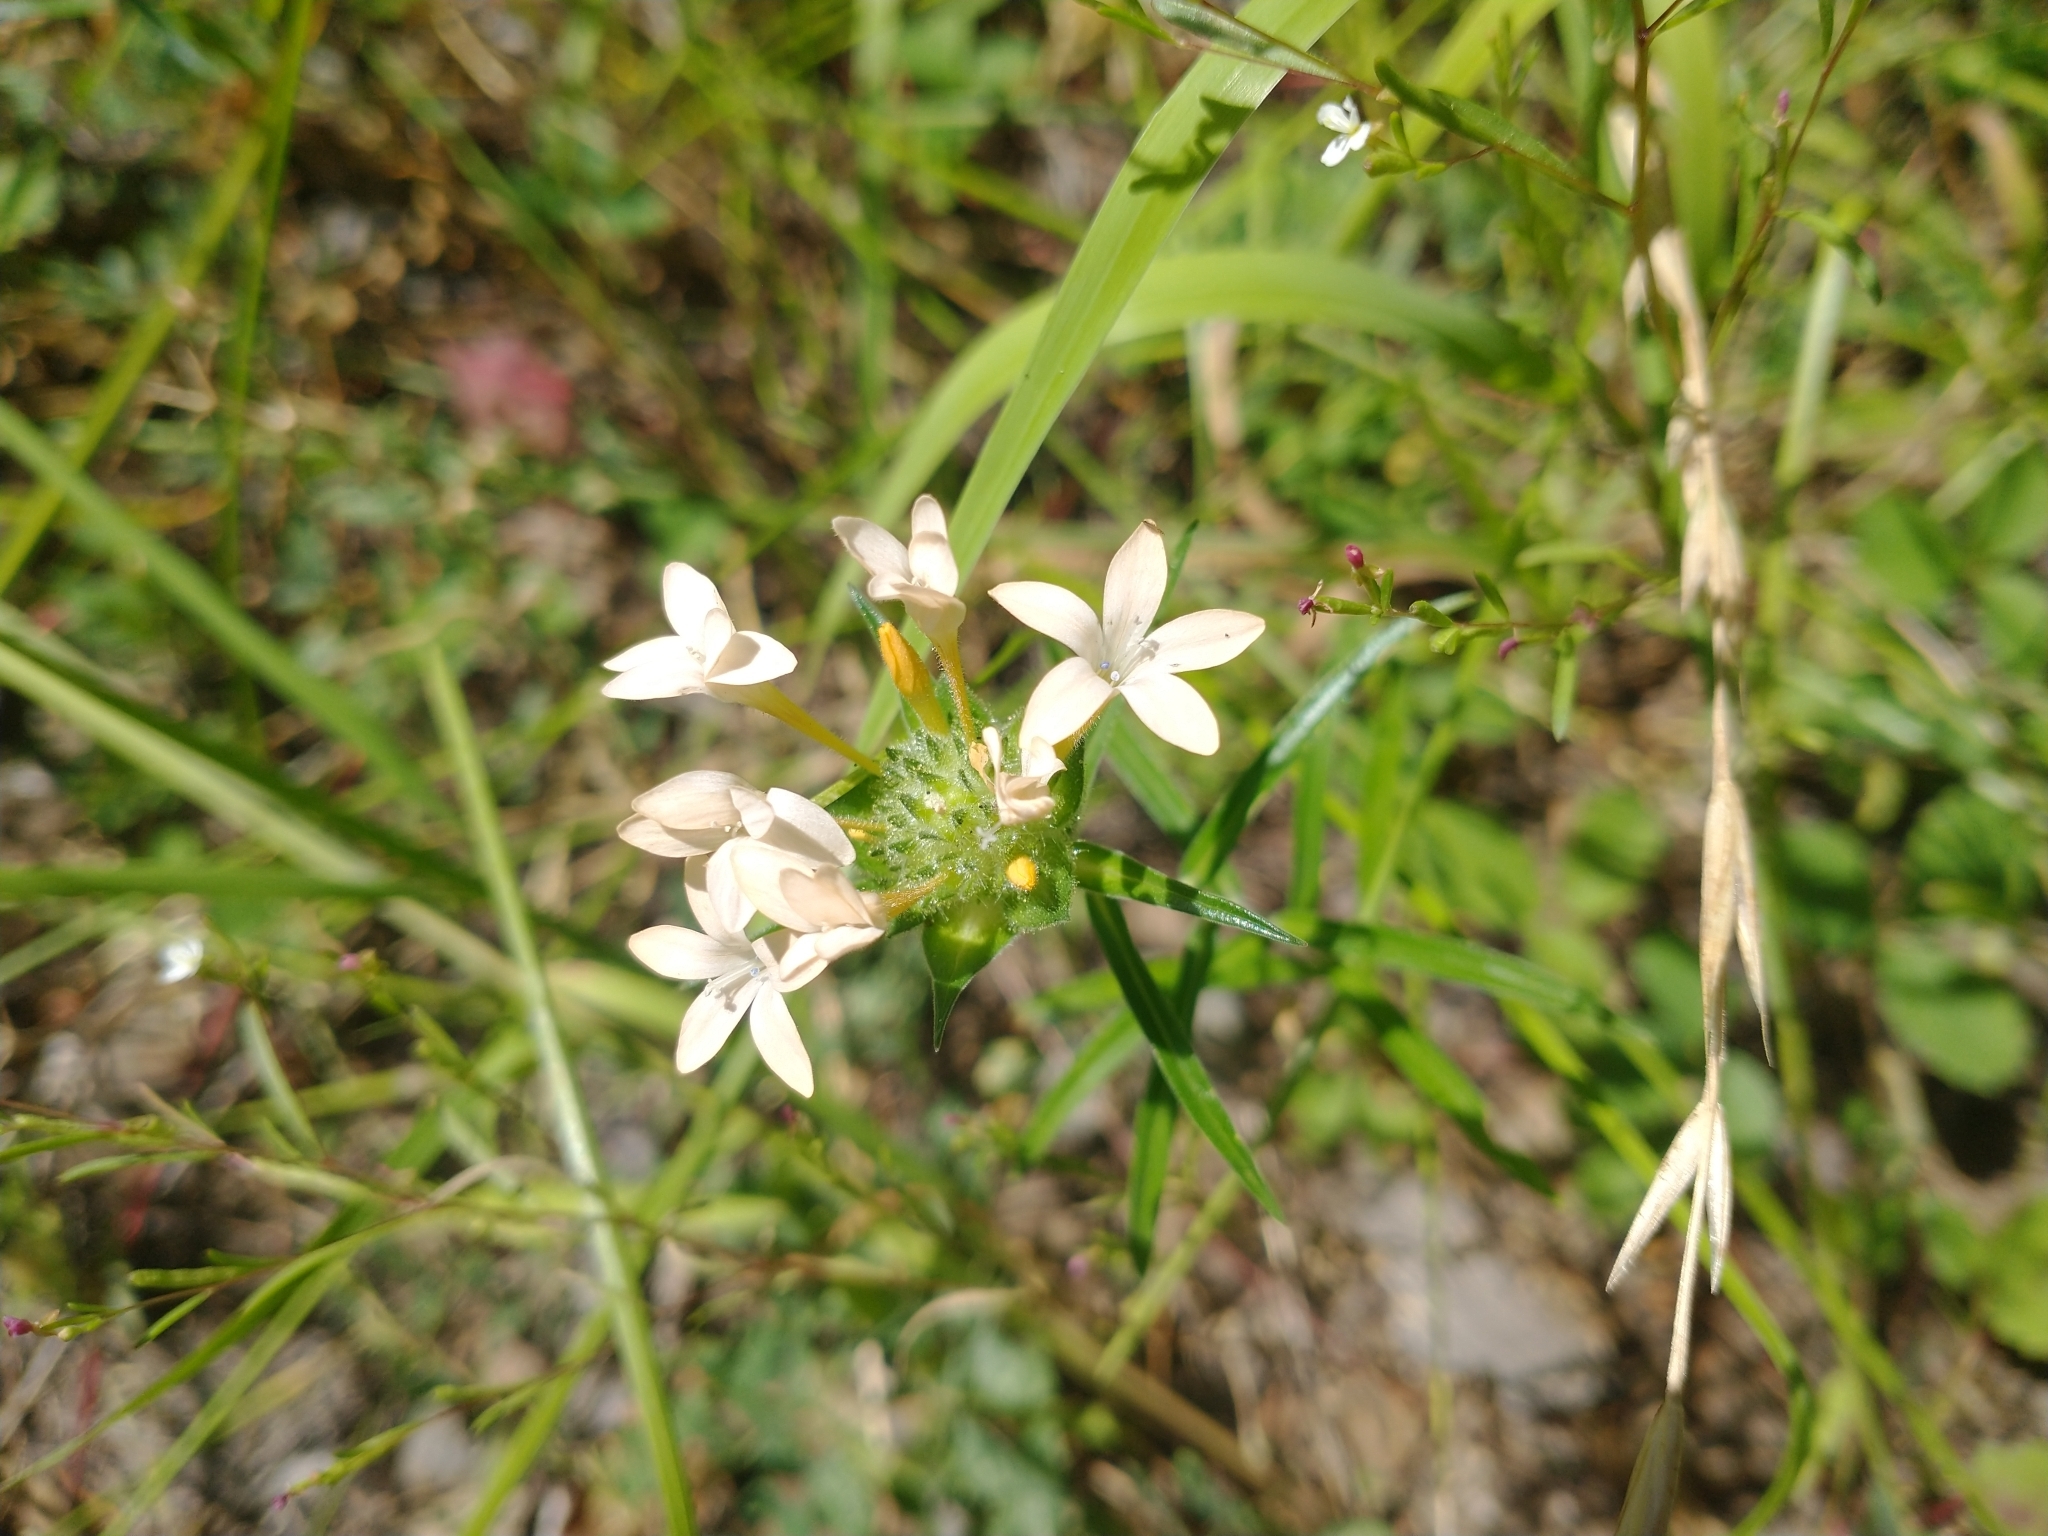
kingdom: Plantae
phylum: Tracheophyta
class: Magnoliopsida
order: Ericales
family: Polemoniaceae
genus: Collomia
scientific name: Collomia grandiflora
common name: California strawflower
